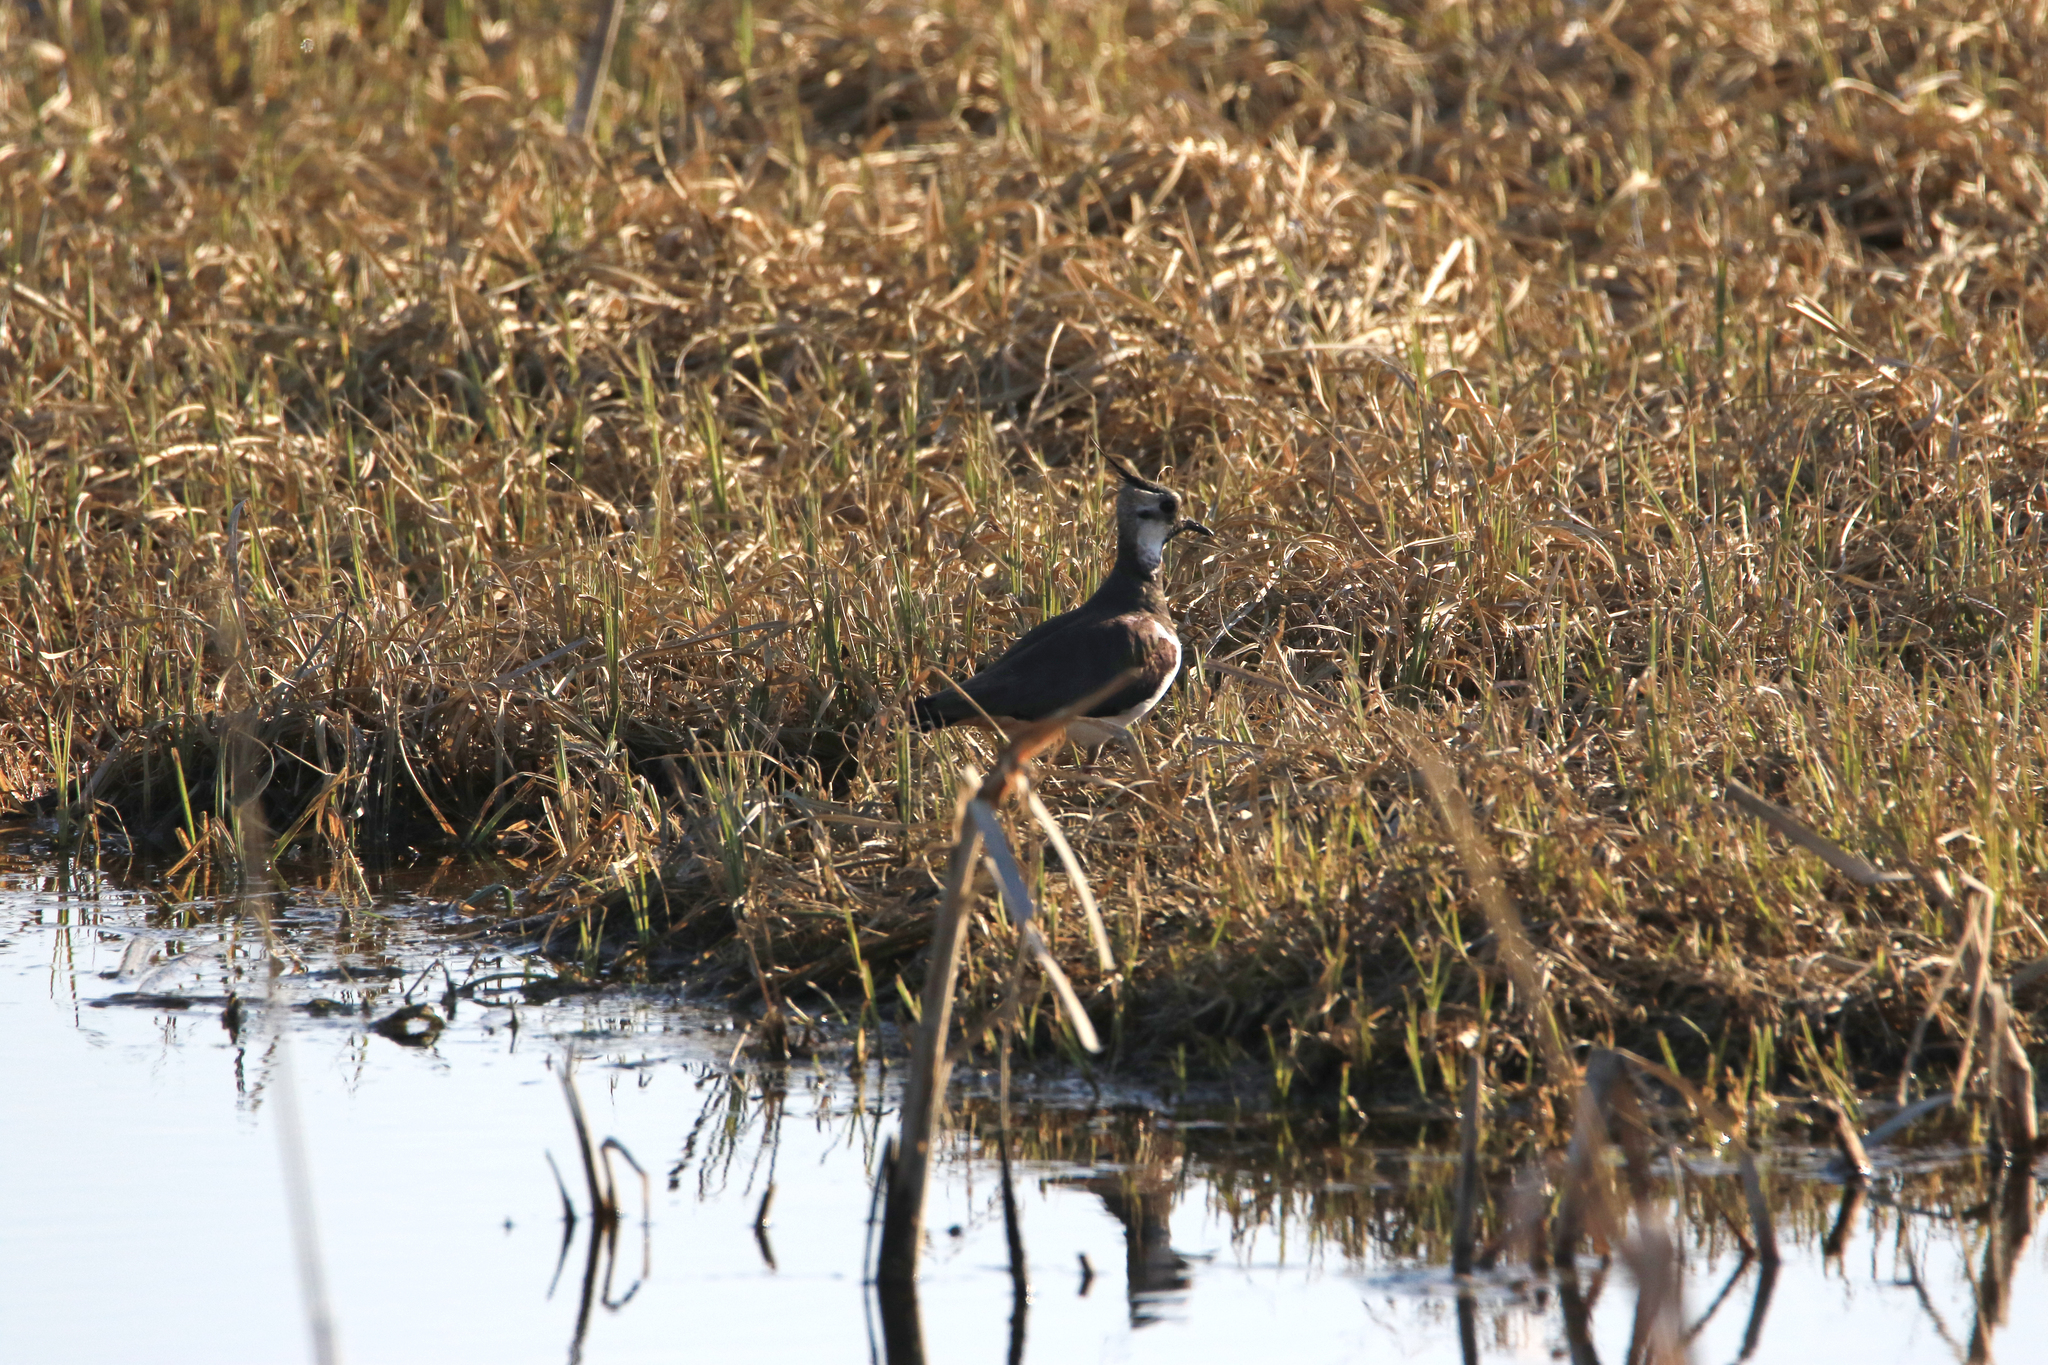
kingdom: Animalia
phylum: Chordata
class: Aves
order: Charadriiformes
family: Charadriidae
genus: Vanellus
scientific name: Vanellus vanellus
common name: Northern lapwing
